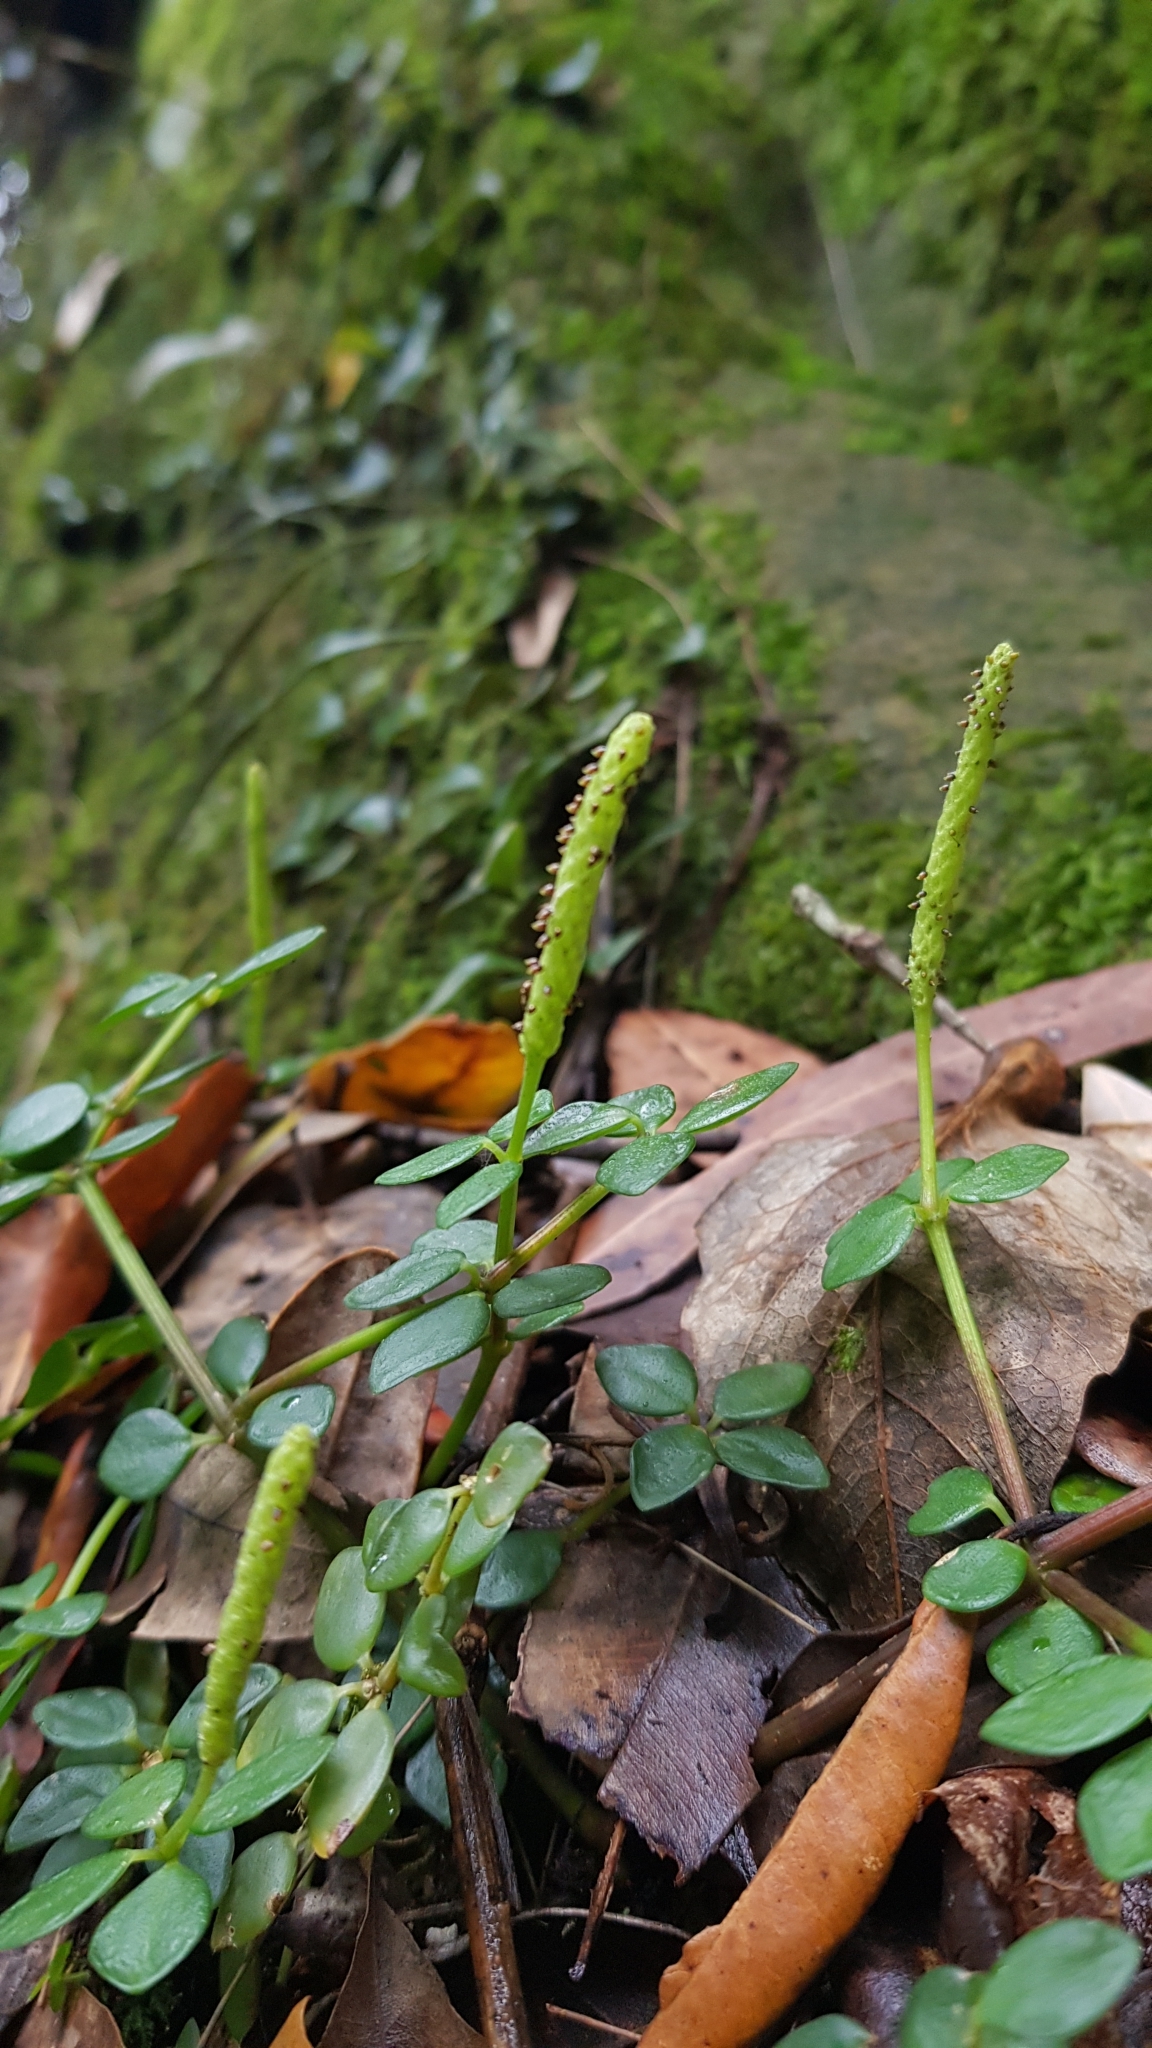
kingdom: Plantae
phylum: Tracheophyta
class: Magnoliopsida
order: Piperales
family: Piperaceae
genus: Peperomia
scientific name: Peperomia tetraphylla
